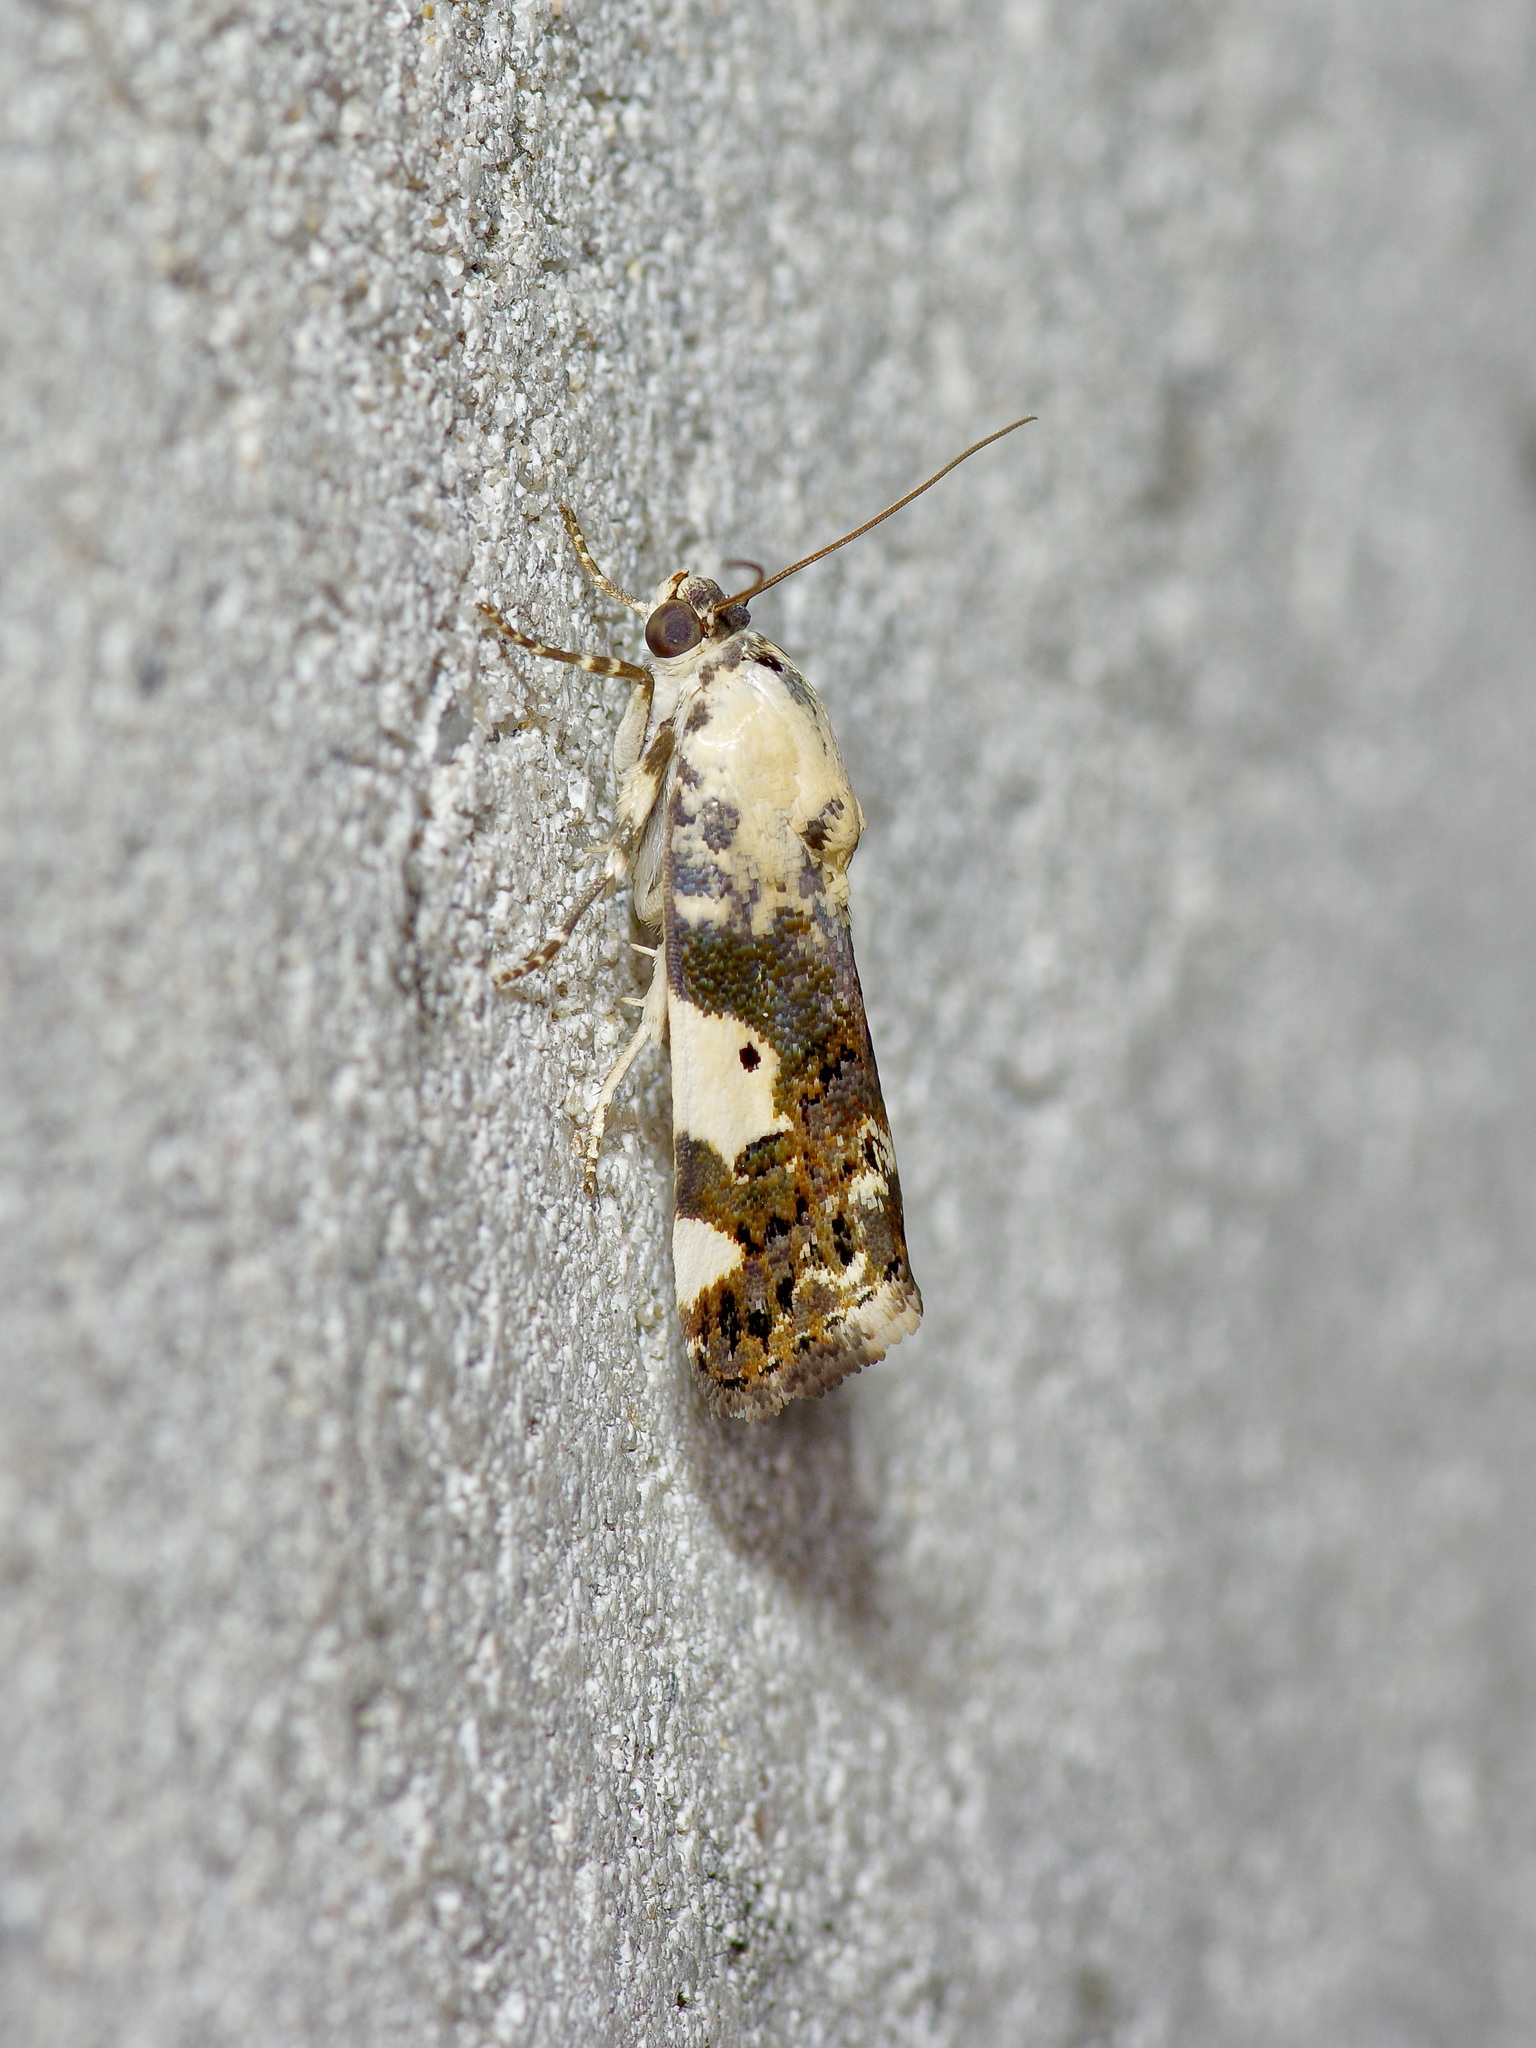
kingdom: Animalia
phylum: Arthropoda
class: Insecta
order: Lepidoptera
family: Noctuidae
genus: Acontia
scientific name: Acontia aprica
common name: Nun
